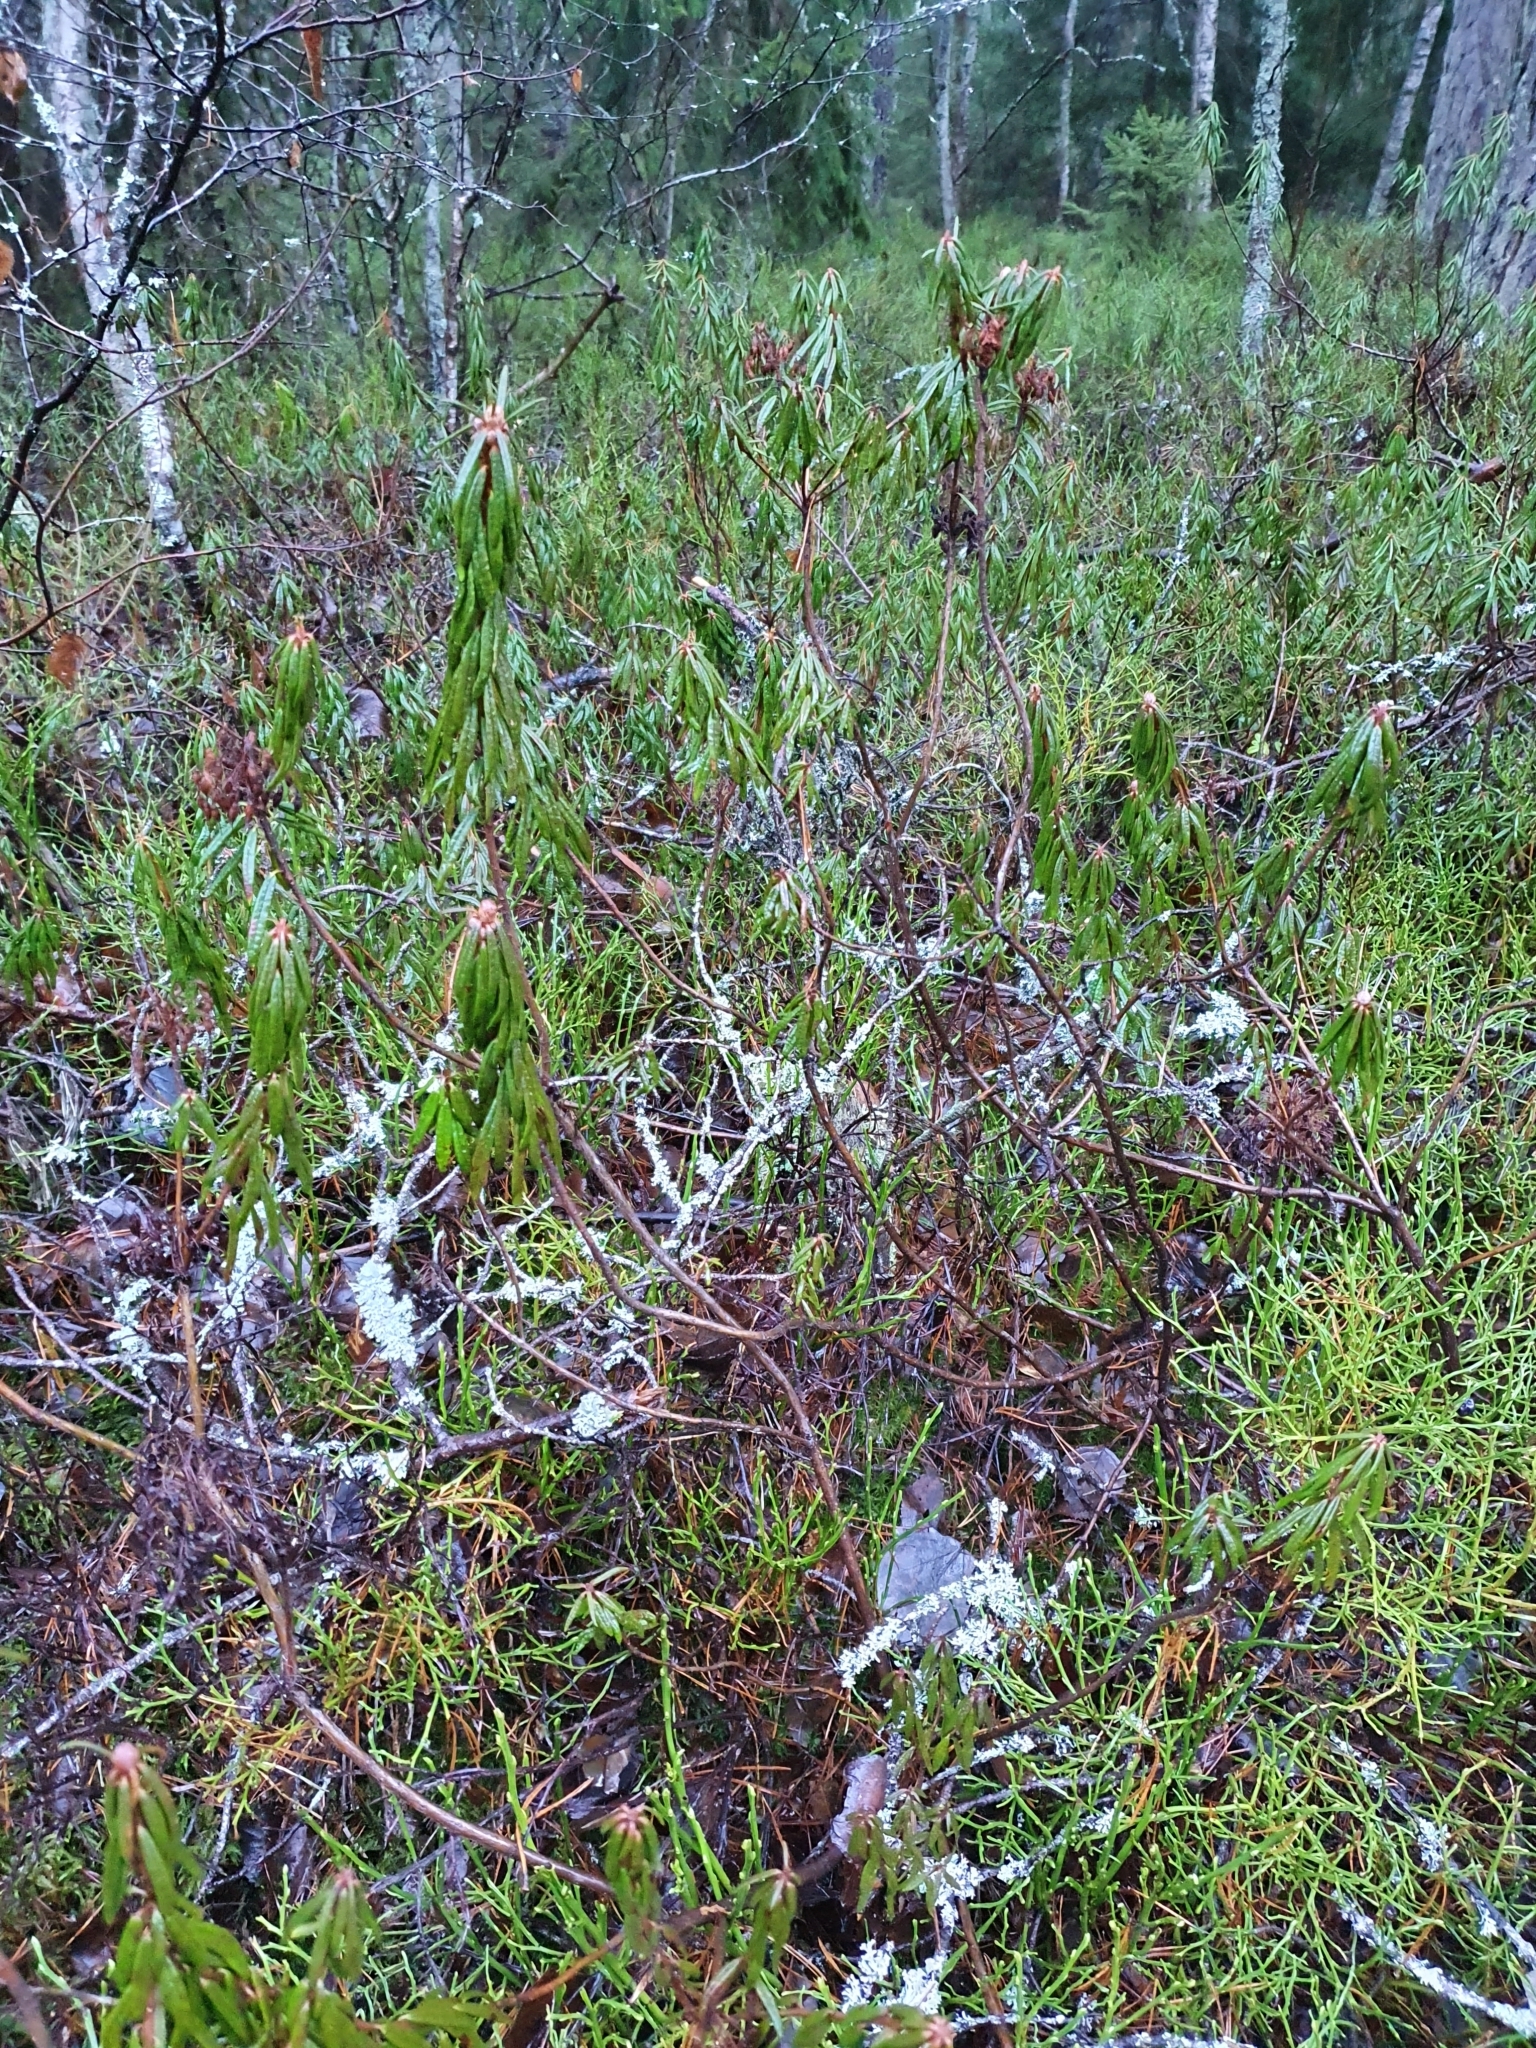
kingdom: Plantae
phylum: Tracheophyta
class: Magnoliopsida
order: Ericales
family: Ericaceae
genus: Rhododendron
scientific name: Rhododendron tomentosum
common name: Marsh labrador tea
